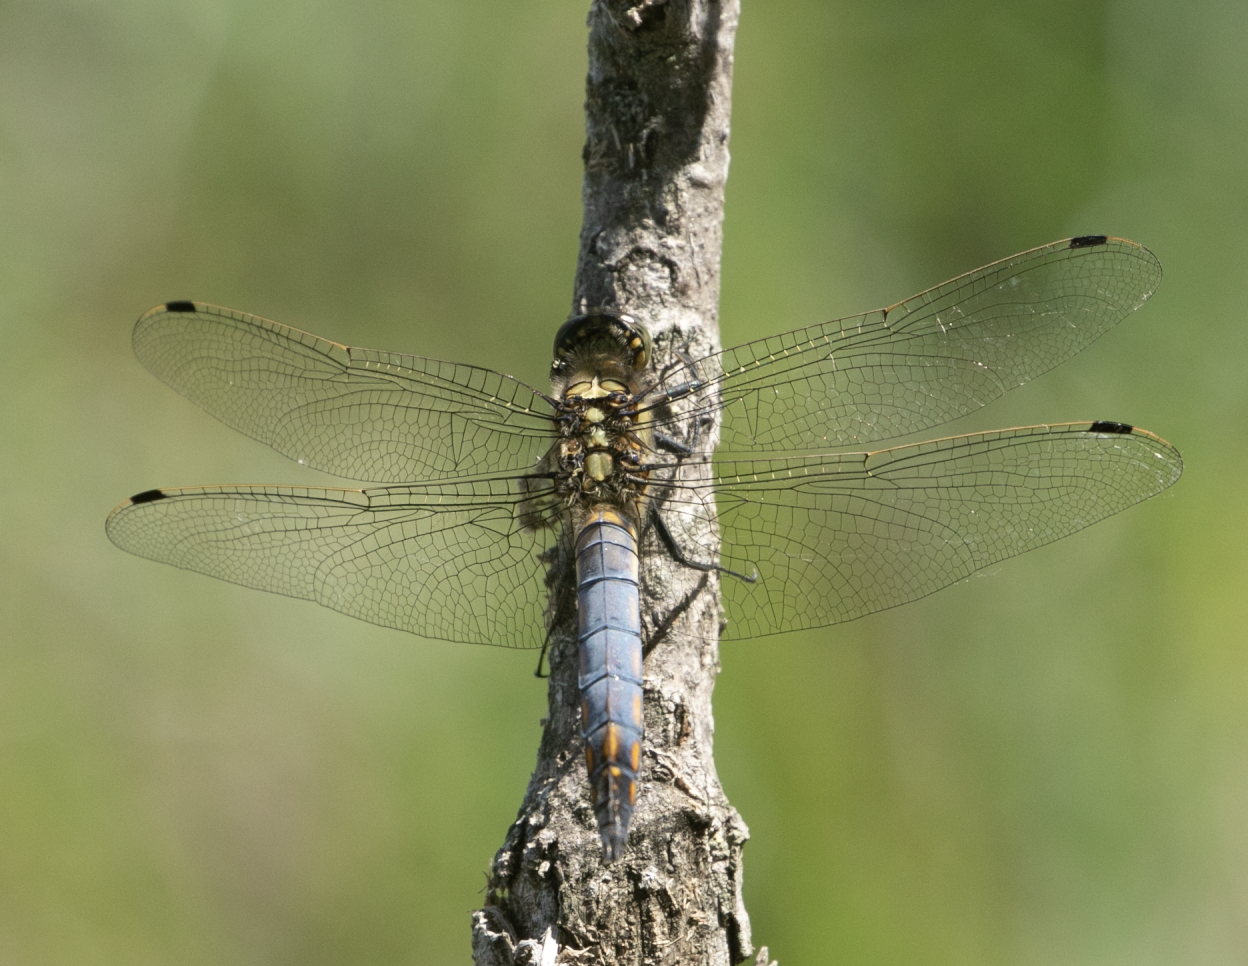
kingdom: Animalia
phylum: Arthropoda
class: Insecta
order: Odonata
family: Libellulidae
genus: Orthetrum
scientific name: Orthetrum cancellatum
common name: Black-tailed skimmer
